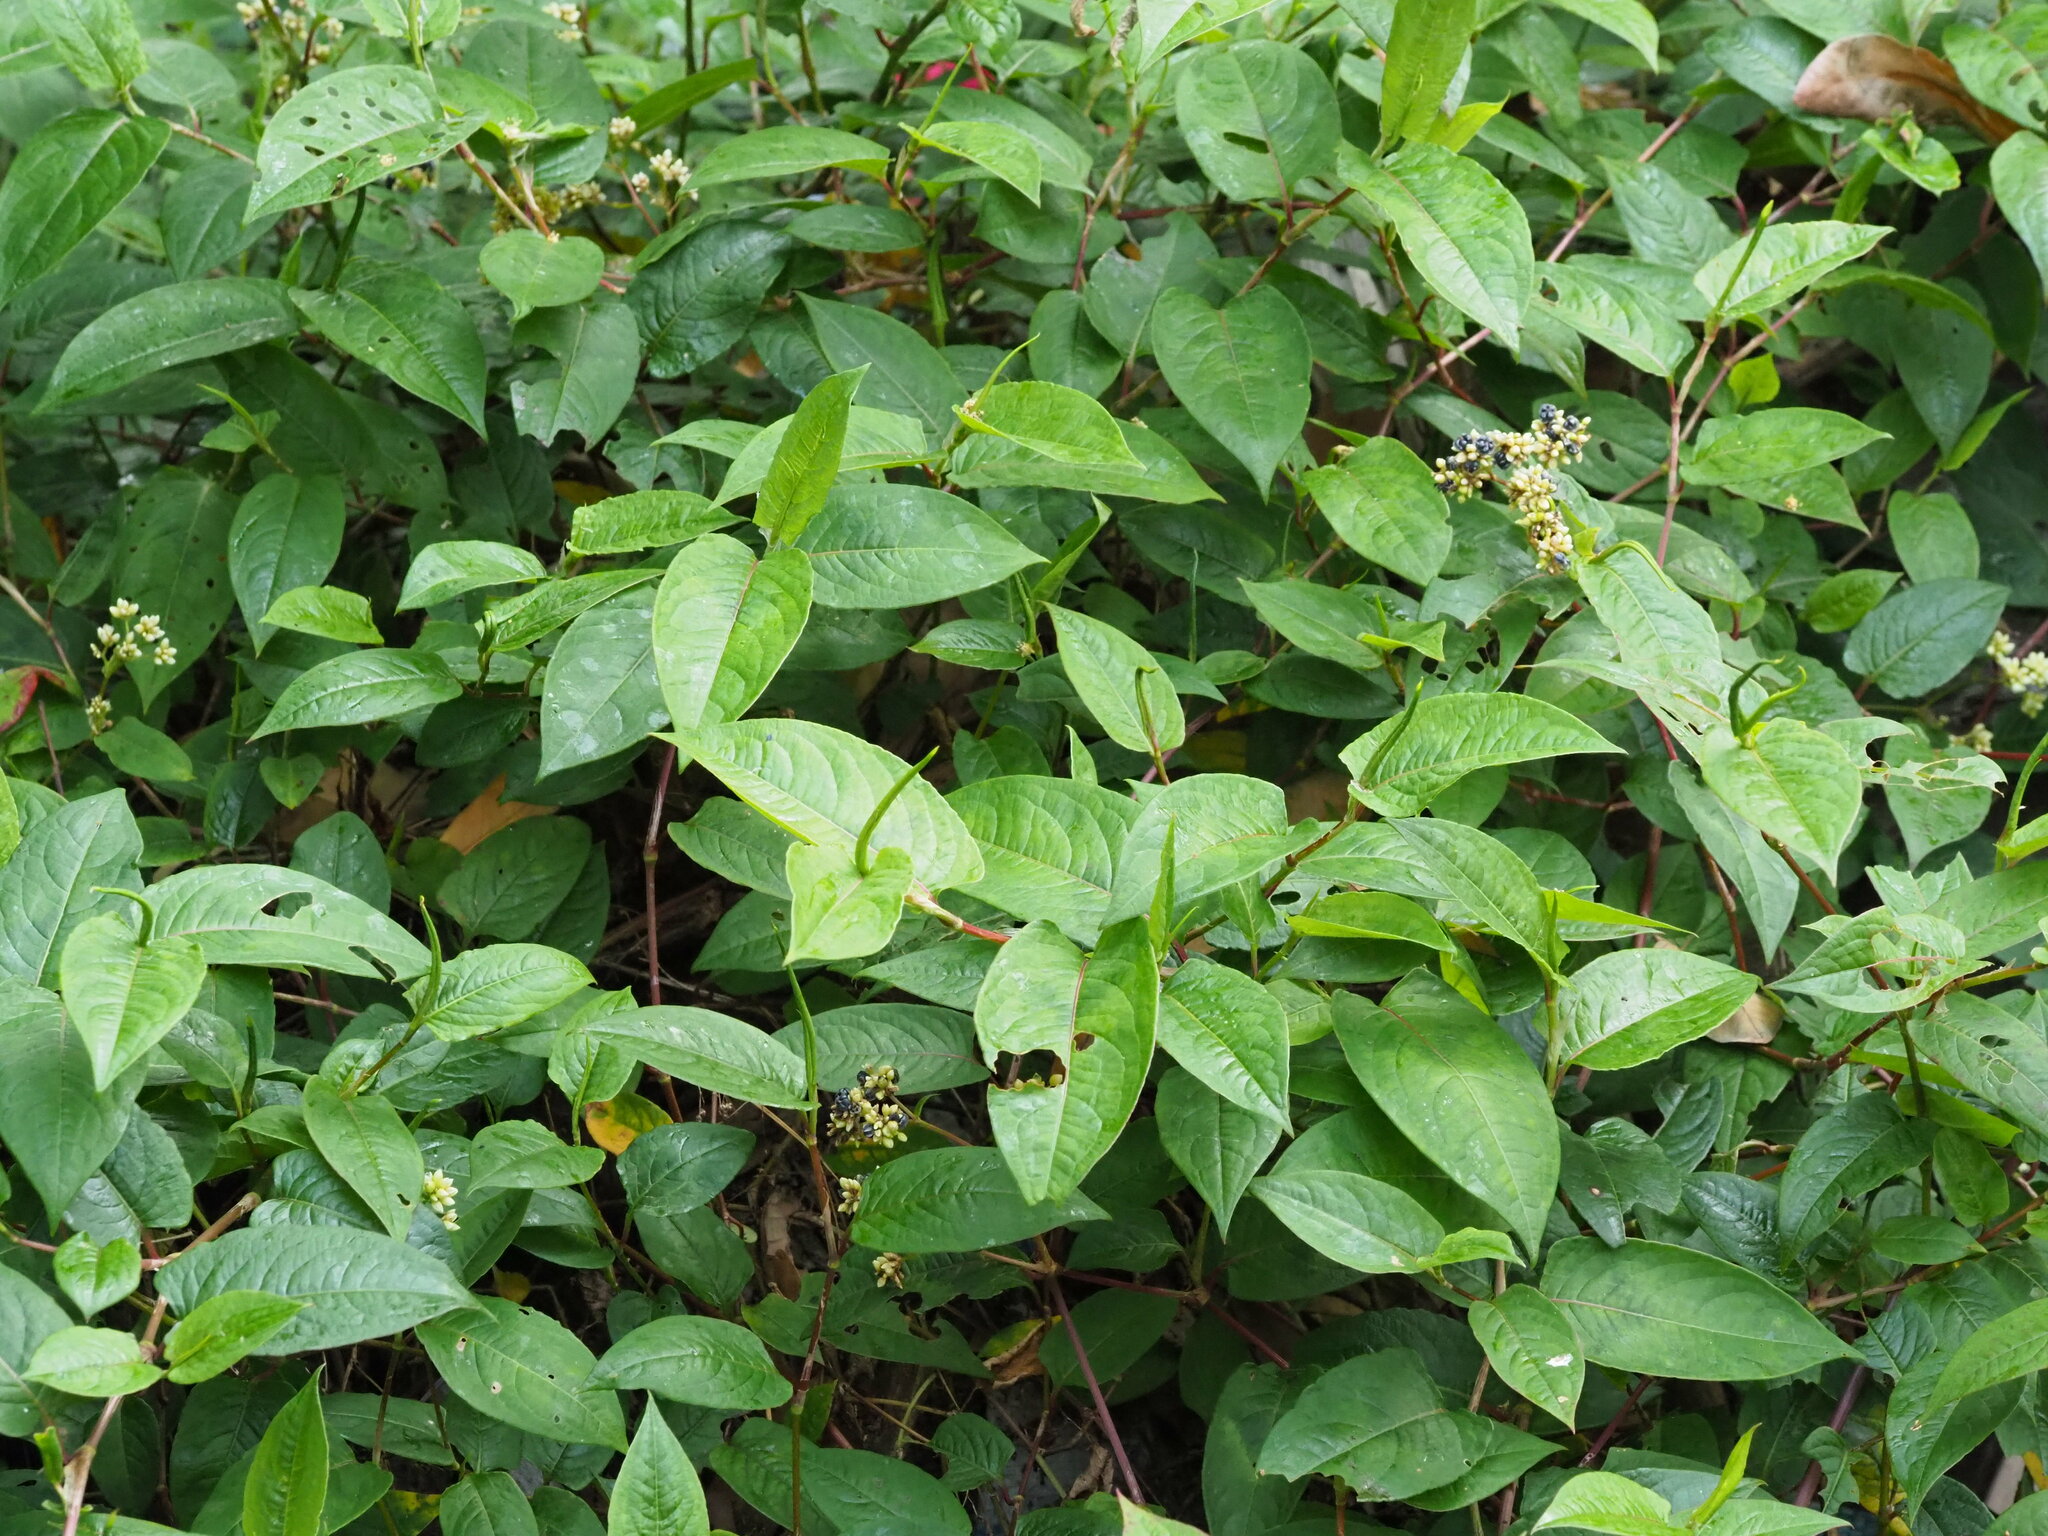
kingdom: Plantae
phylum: Tracheophyta
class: Magnoliopsida
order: Caryophyllales
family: Polygonaceae
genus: Persicaria
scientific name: Persicaria chinensis
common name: Chinese knotweed
